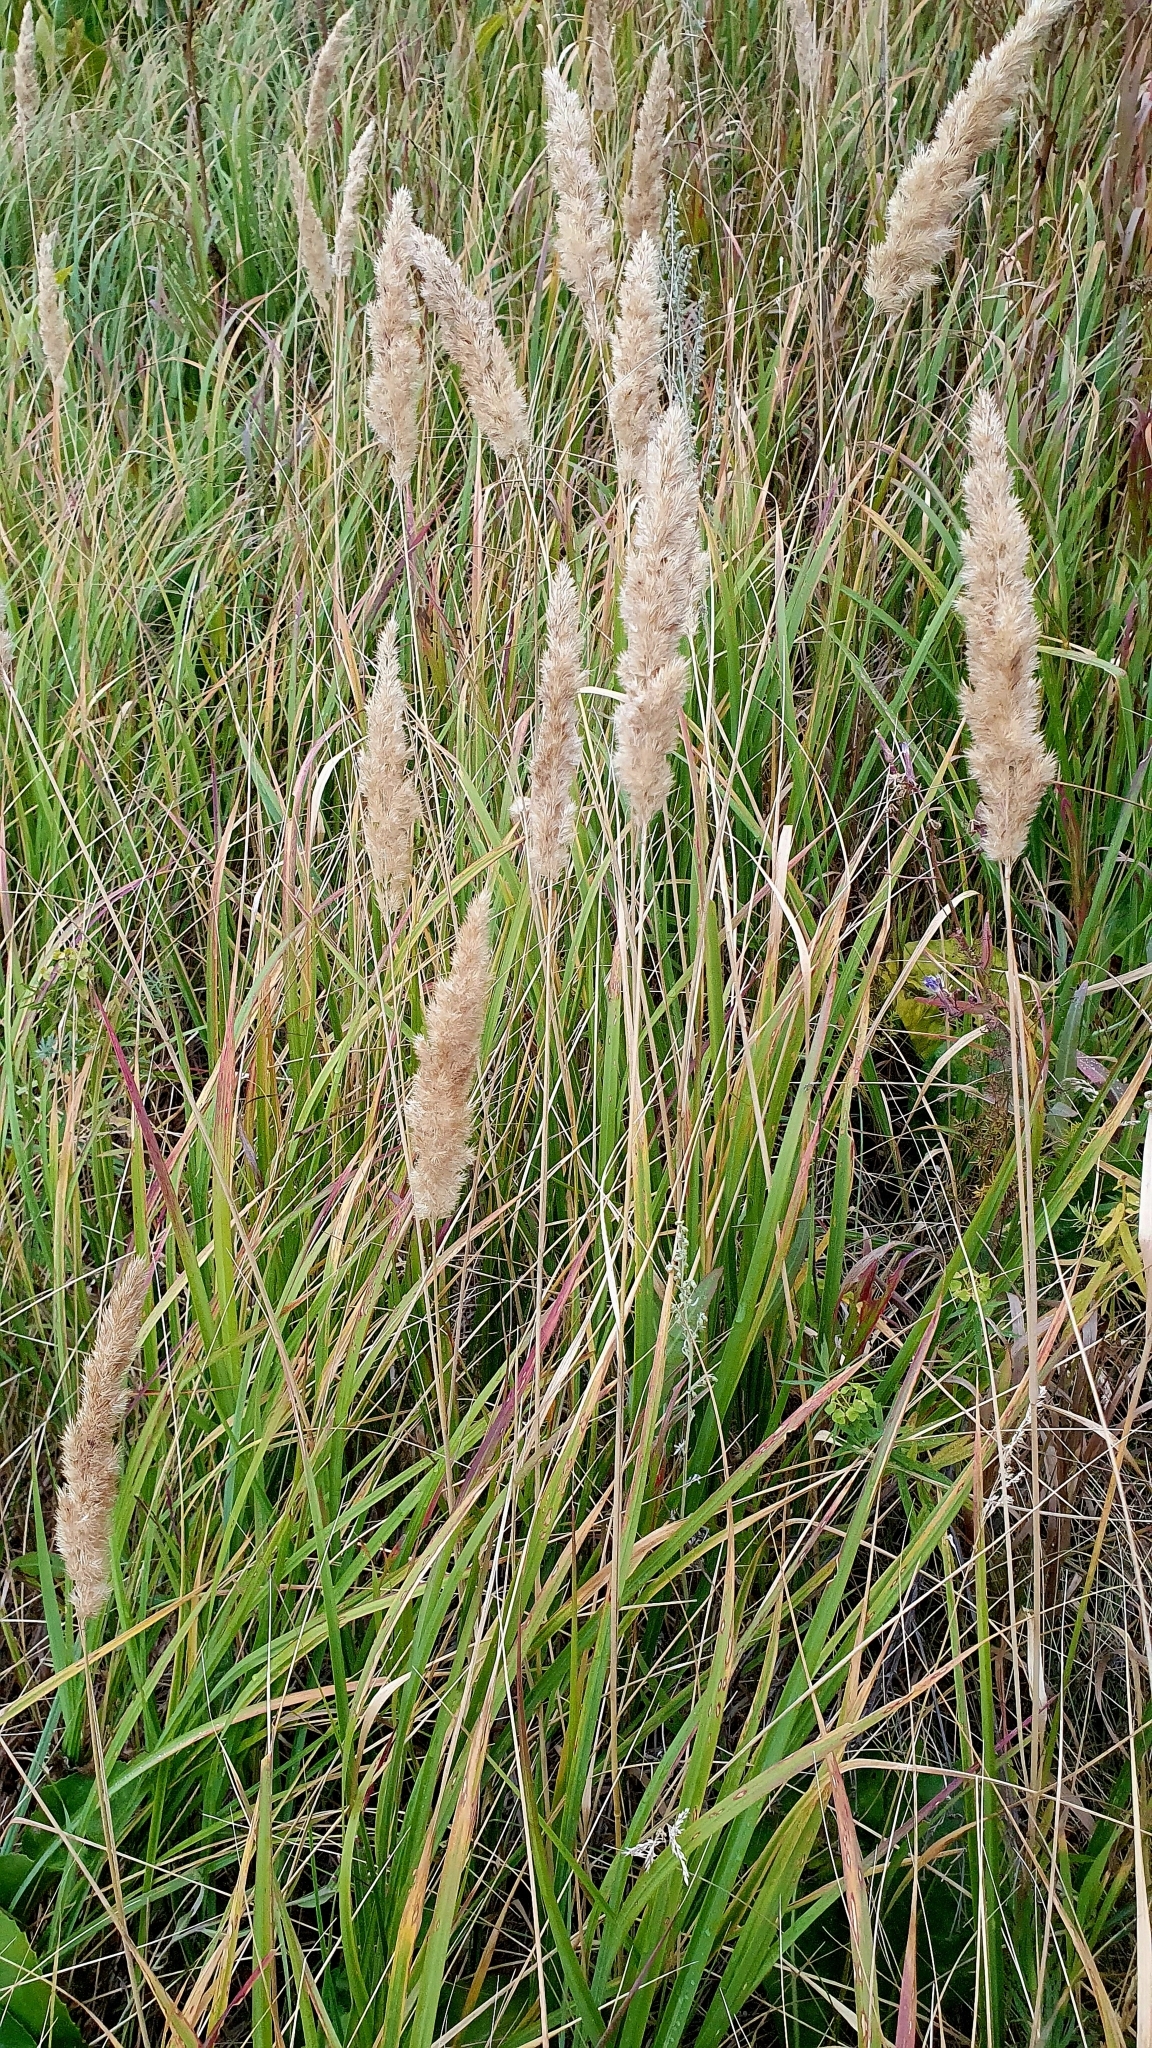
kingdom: Plantae
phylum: Tracheophyta
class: Liliopsida
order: Poales
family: Poaceae
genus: Calamagrostis
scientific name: Calamagrostis epigejos
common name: Wood small-reed
